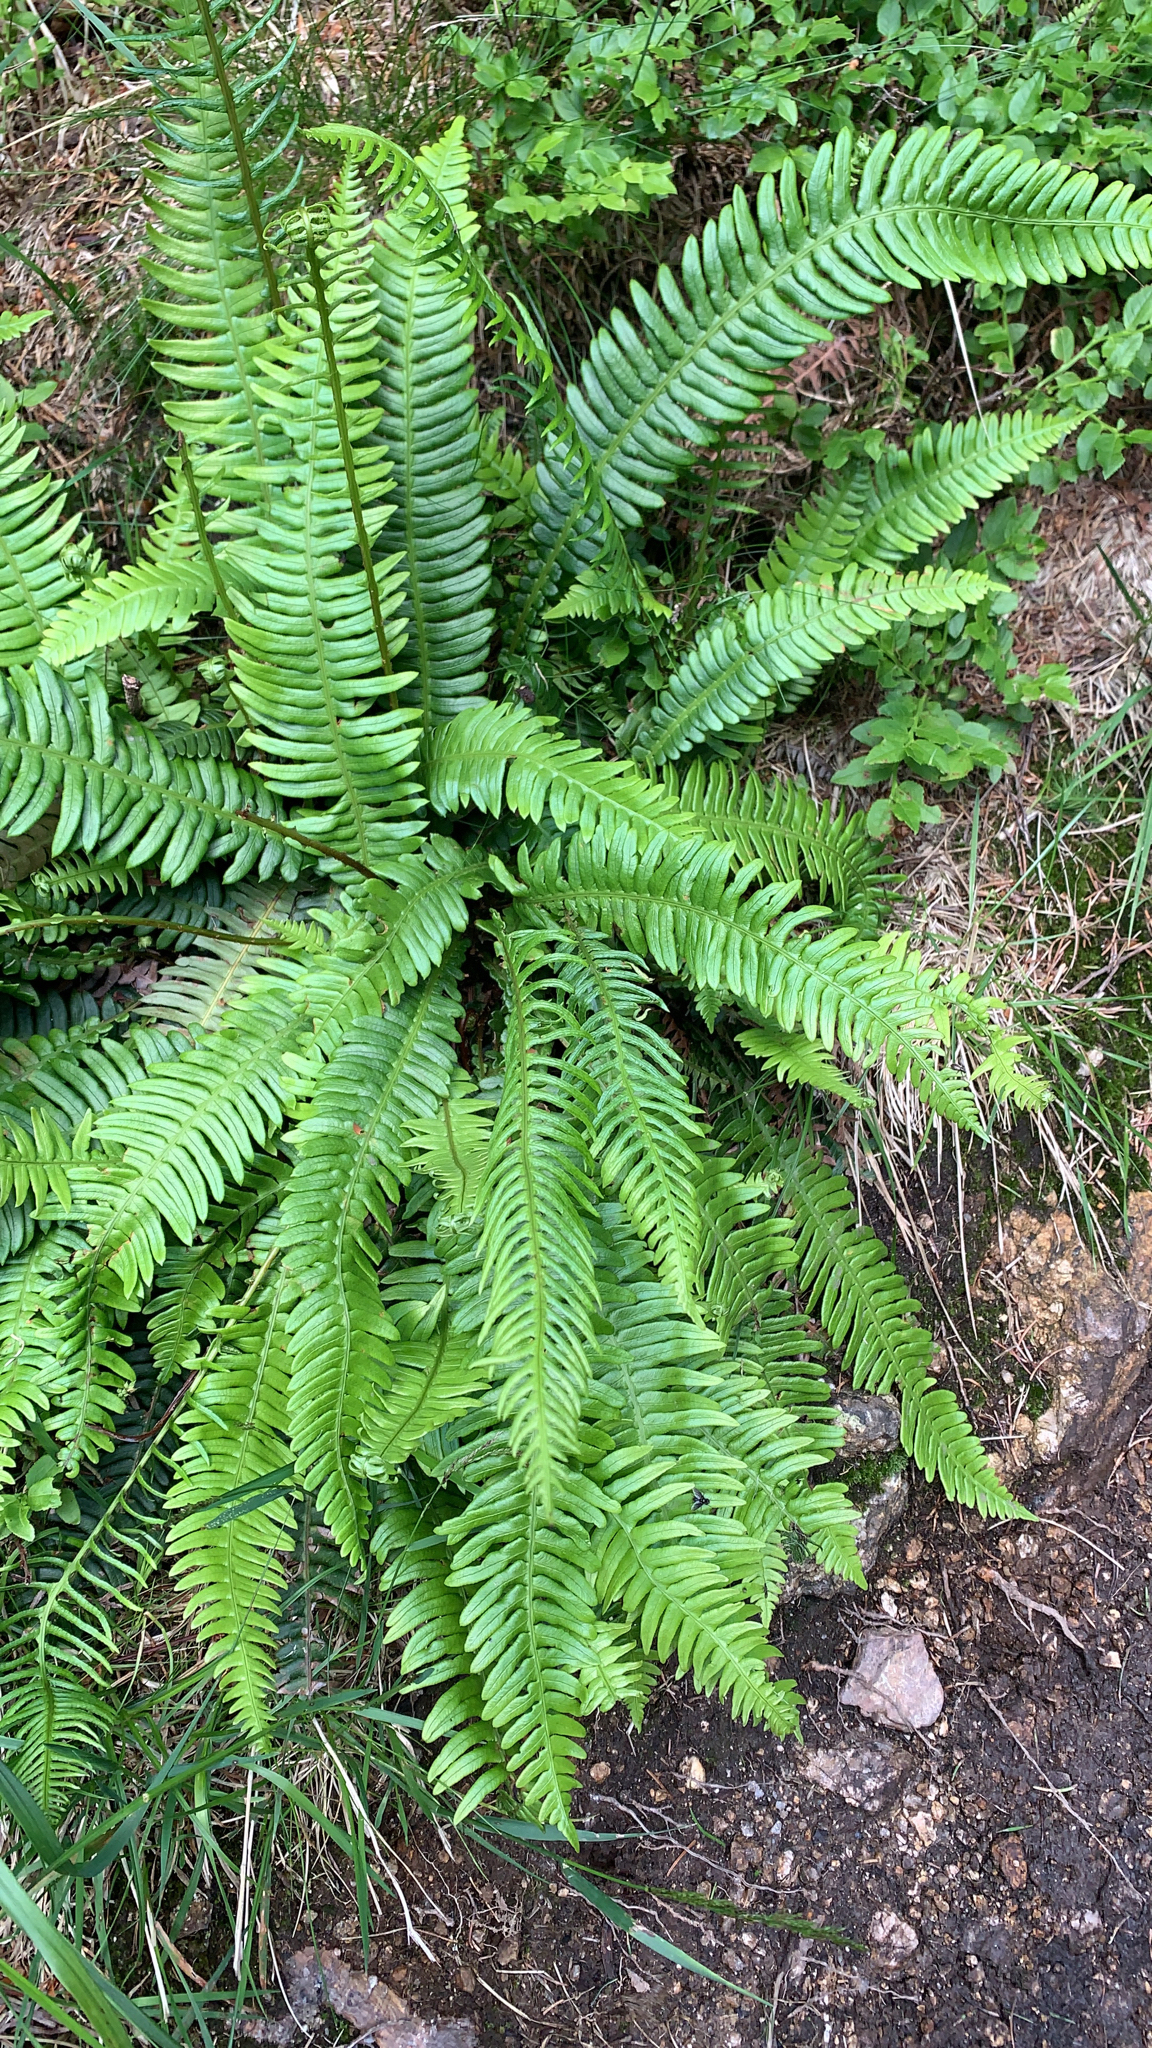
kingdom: Plantae
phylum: Tracheophyta
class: Polypodiopsida
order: Polypodiales
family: Blechnaceae
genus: Struthiopteris
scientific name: Struthiopteris spicant
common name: Deer fern
